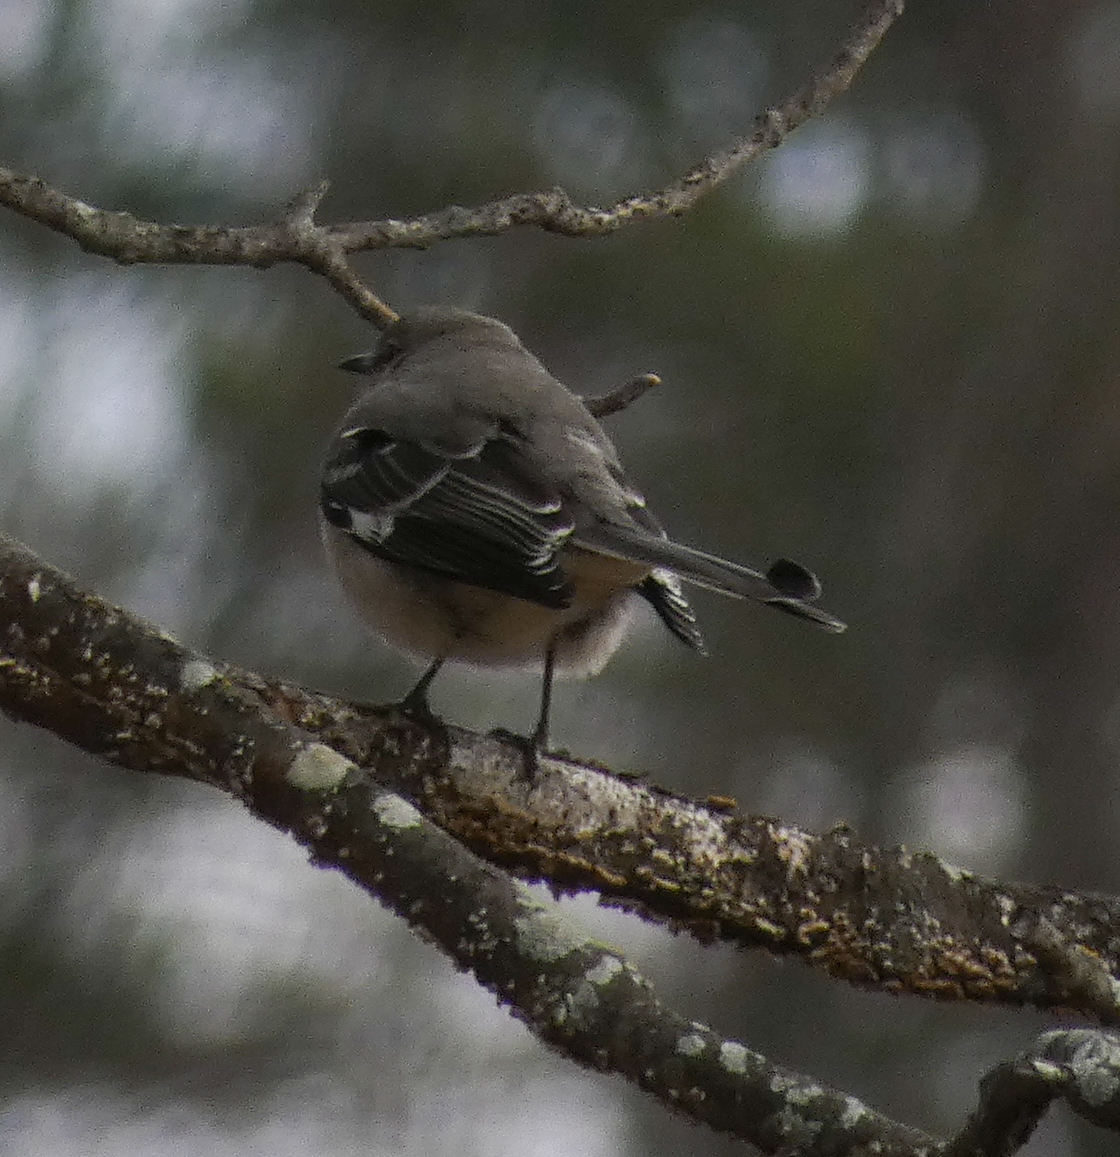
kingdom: Animalia
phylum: Chordata
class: Aves
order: Passeriformes
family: Mimidae
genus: Mimus
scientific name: Mimus polyglottos
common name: Northern mockingbird
